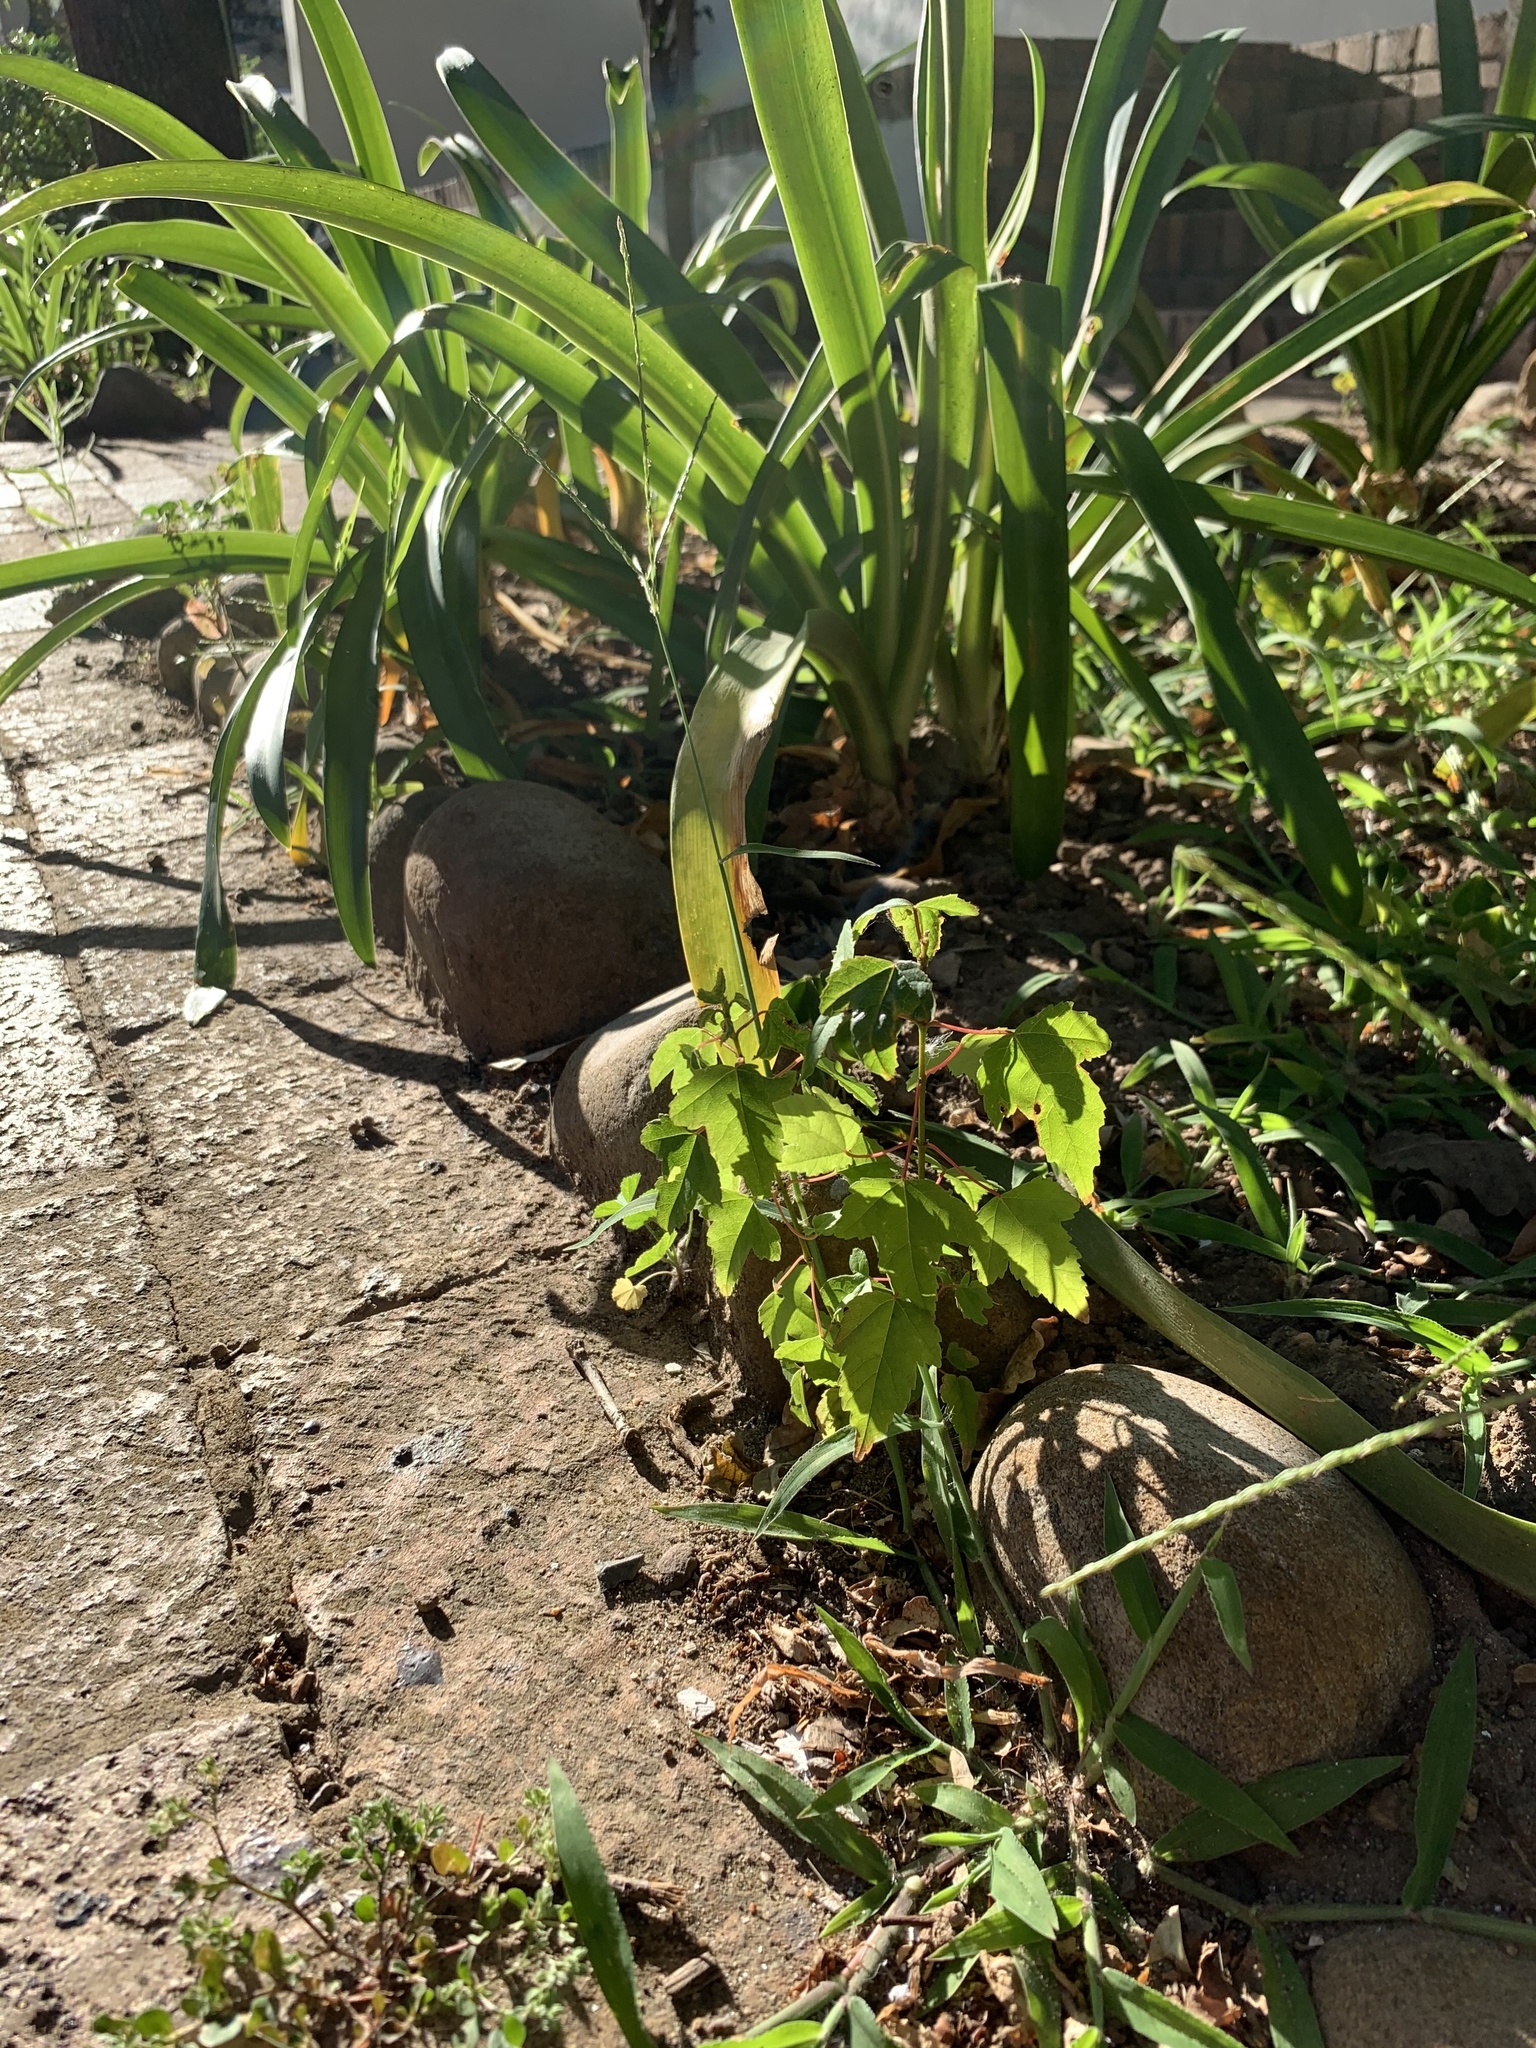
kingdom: Plantae
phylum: Tracheophyta
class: Magnoliopsida
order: Sapindales
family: Sapindaceae
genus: Acer
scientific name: Acer negundo
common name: Ashleaf maple
